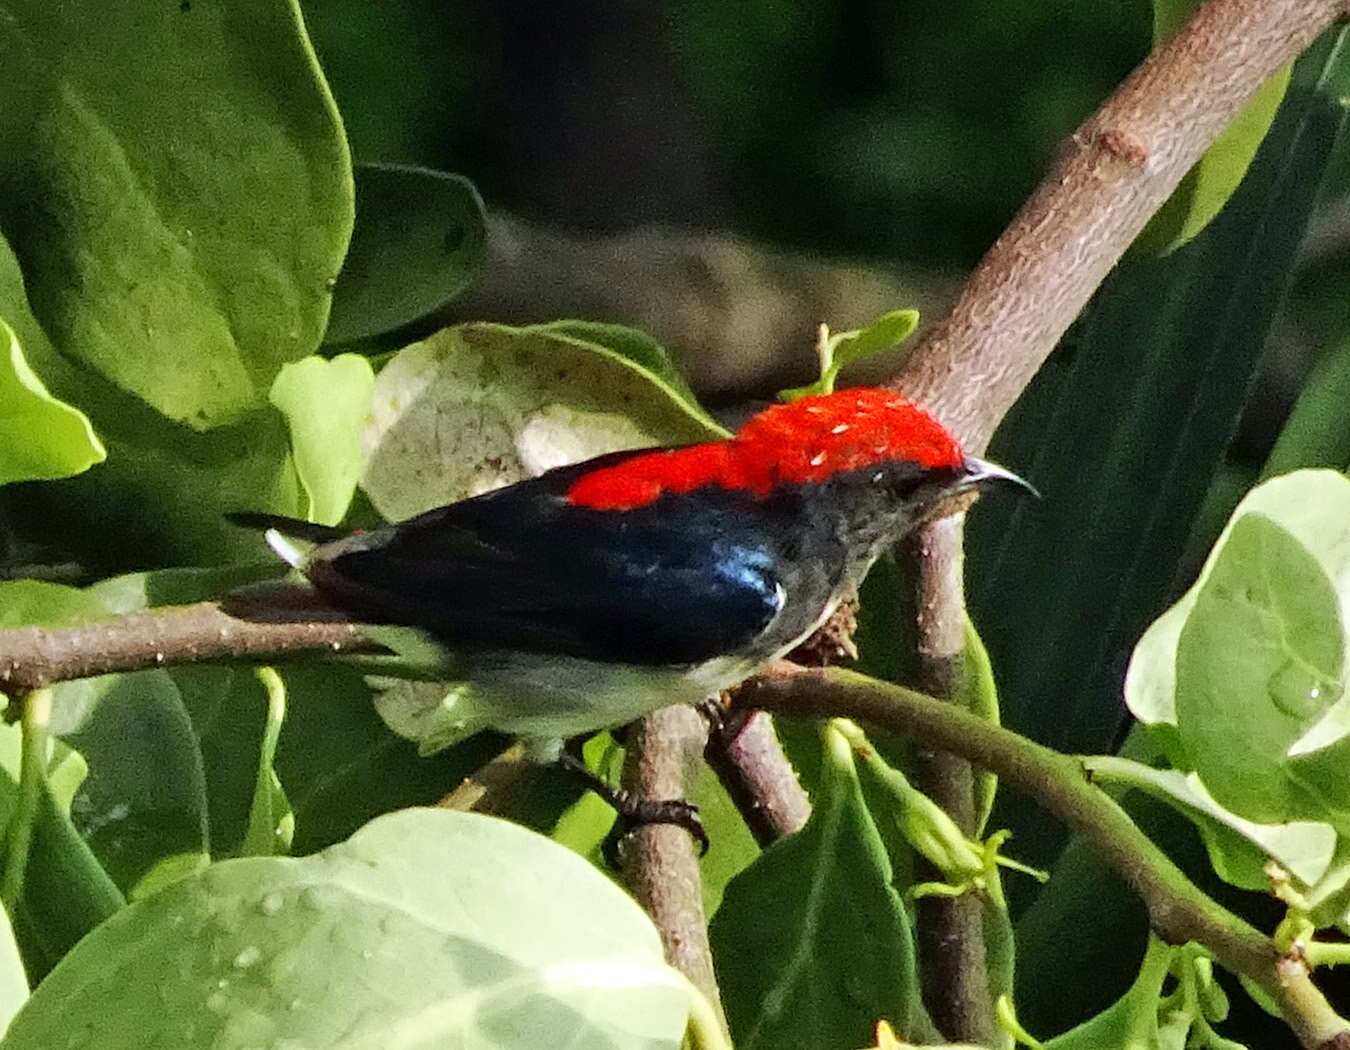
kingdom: Animalia
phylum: Chordata
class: Aves
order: Passeriformes
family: Dicaeidae
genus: Dicaeum
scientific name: Dicaeum cruentatum
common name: Scarlet-backed flowerpecker
